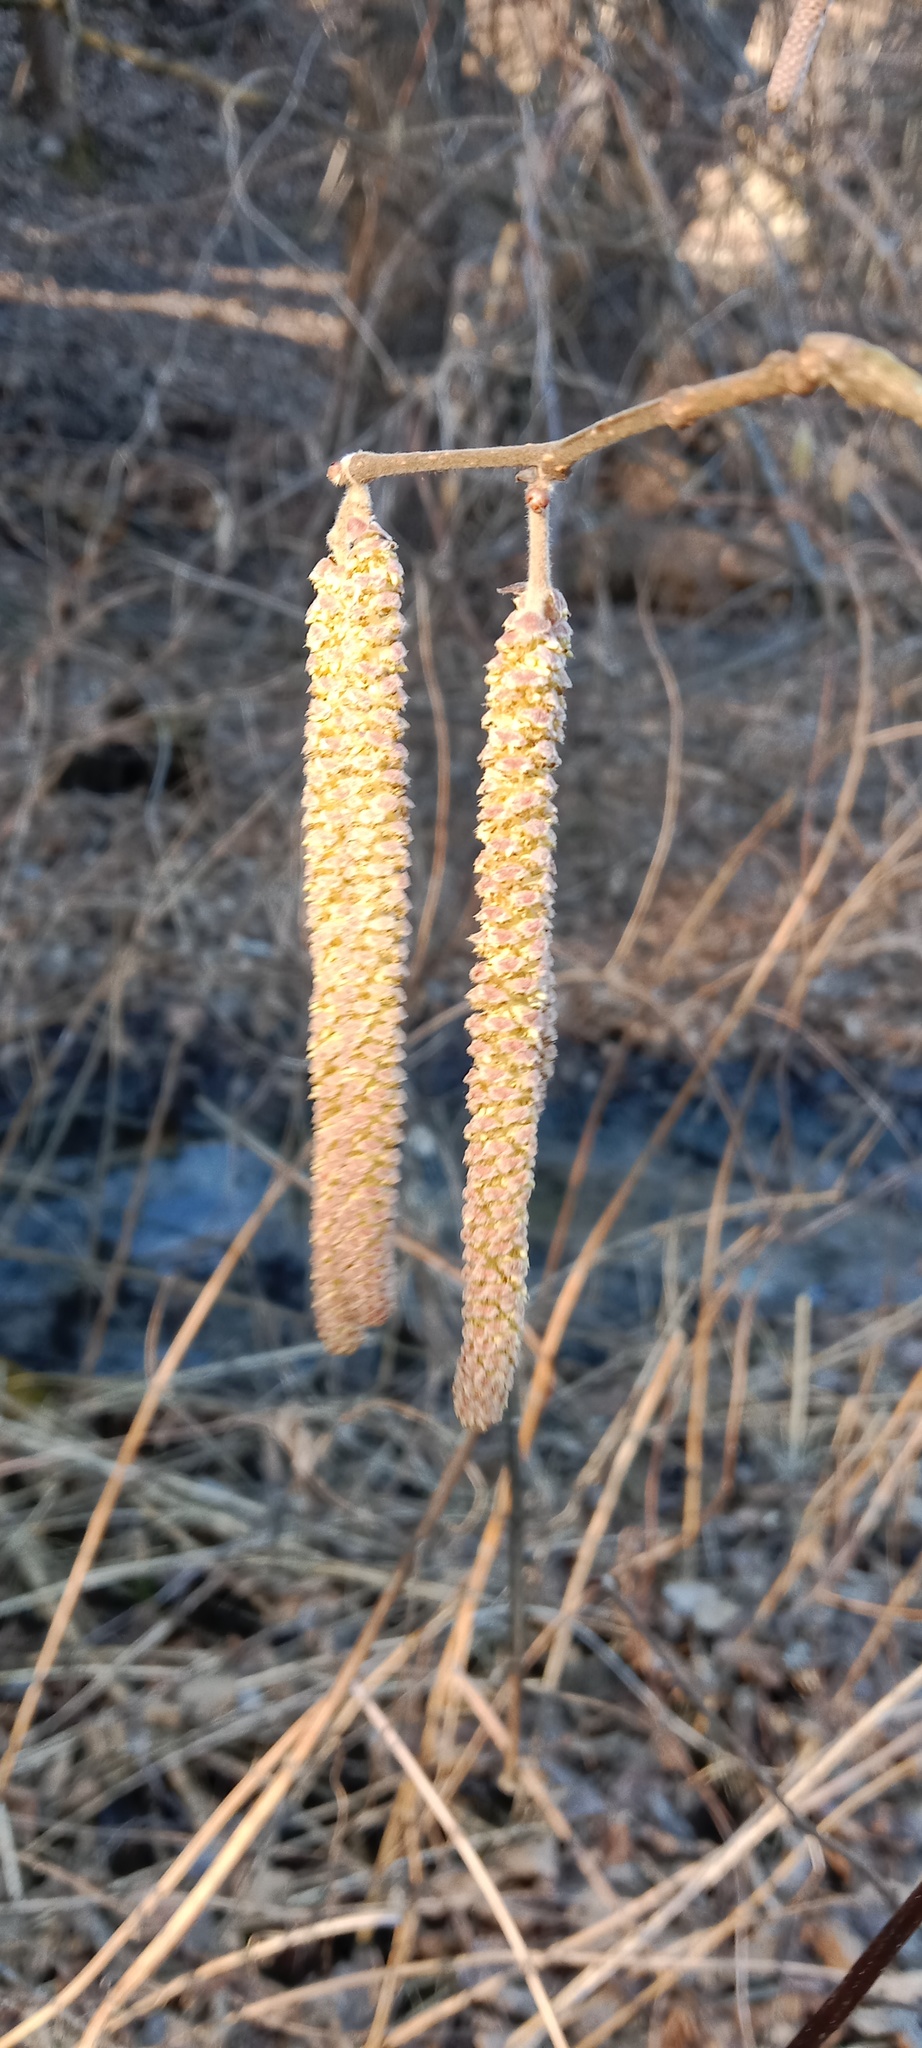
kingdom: Plantae
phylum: Tracheophyta
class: Magnoliopsida
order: Fagales
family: Betulaceae
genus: Corylus
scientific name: Corylus avellana
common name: European hazel
